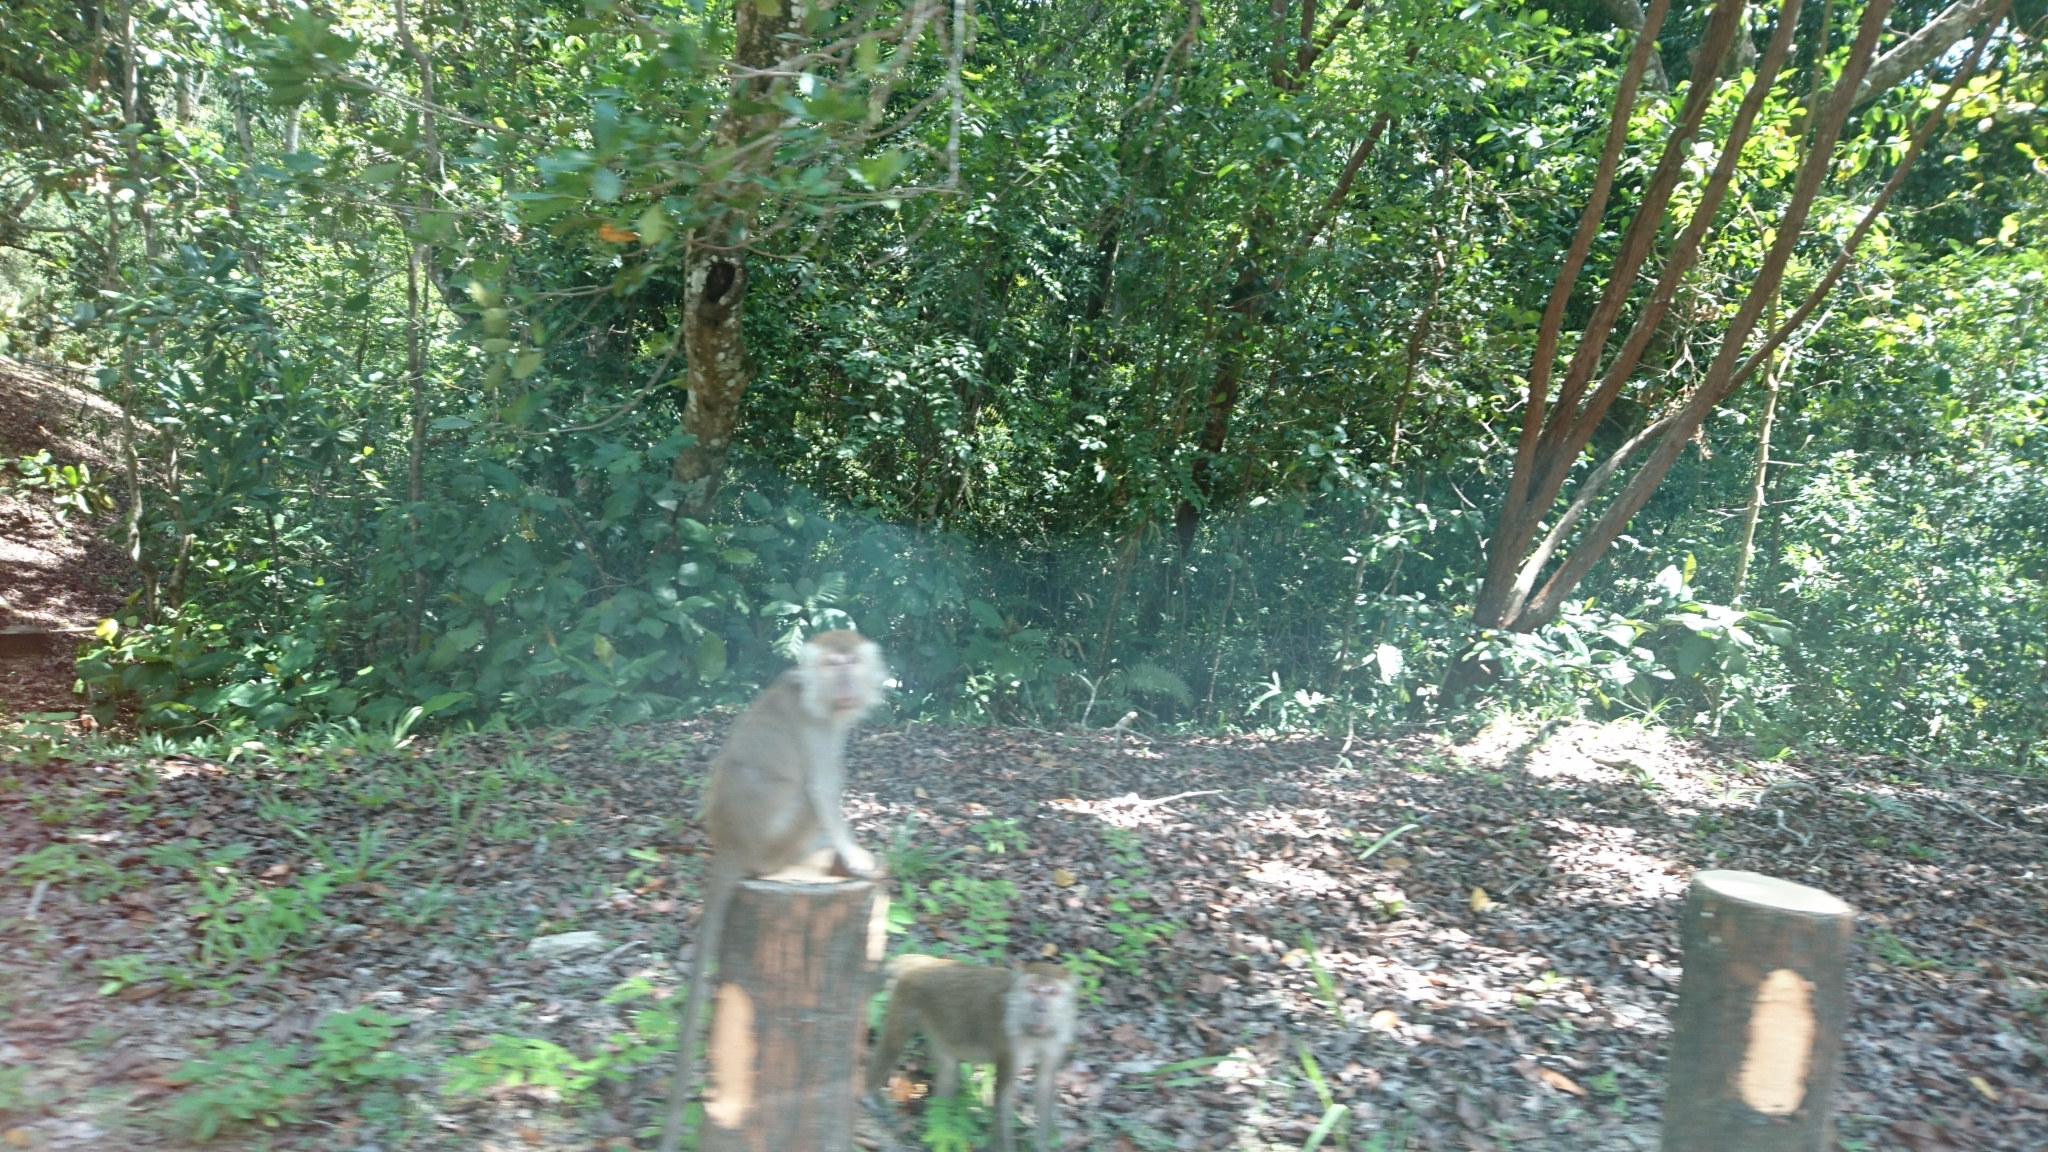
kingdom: Animalia
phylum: Chordata
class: Mammalia
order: Primates
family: Cercopithecidae
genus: Macaca
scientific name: Macaca fascicularis
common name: Crab-eating macaque
